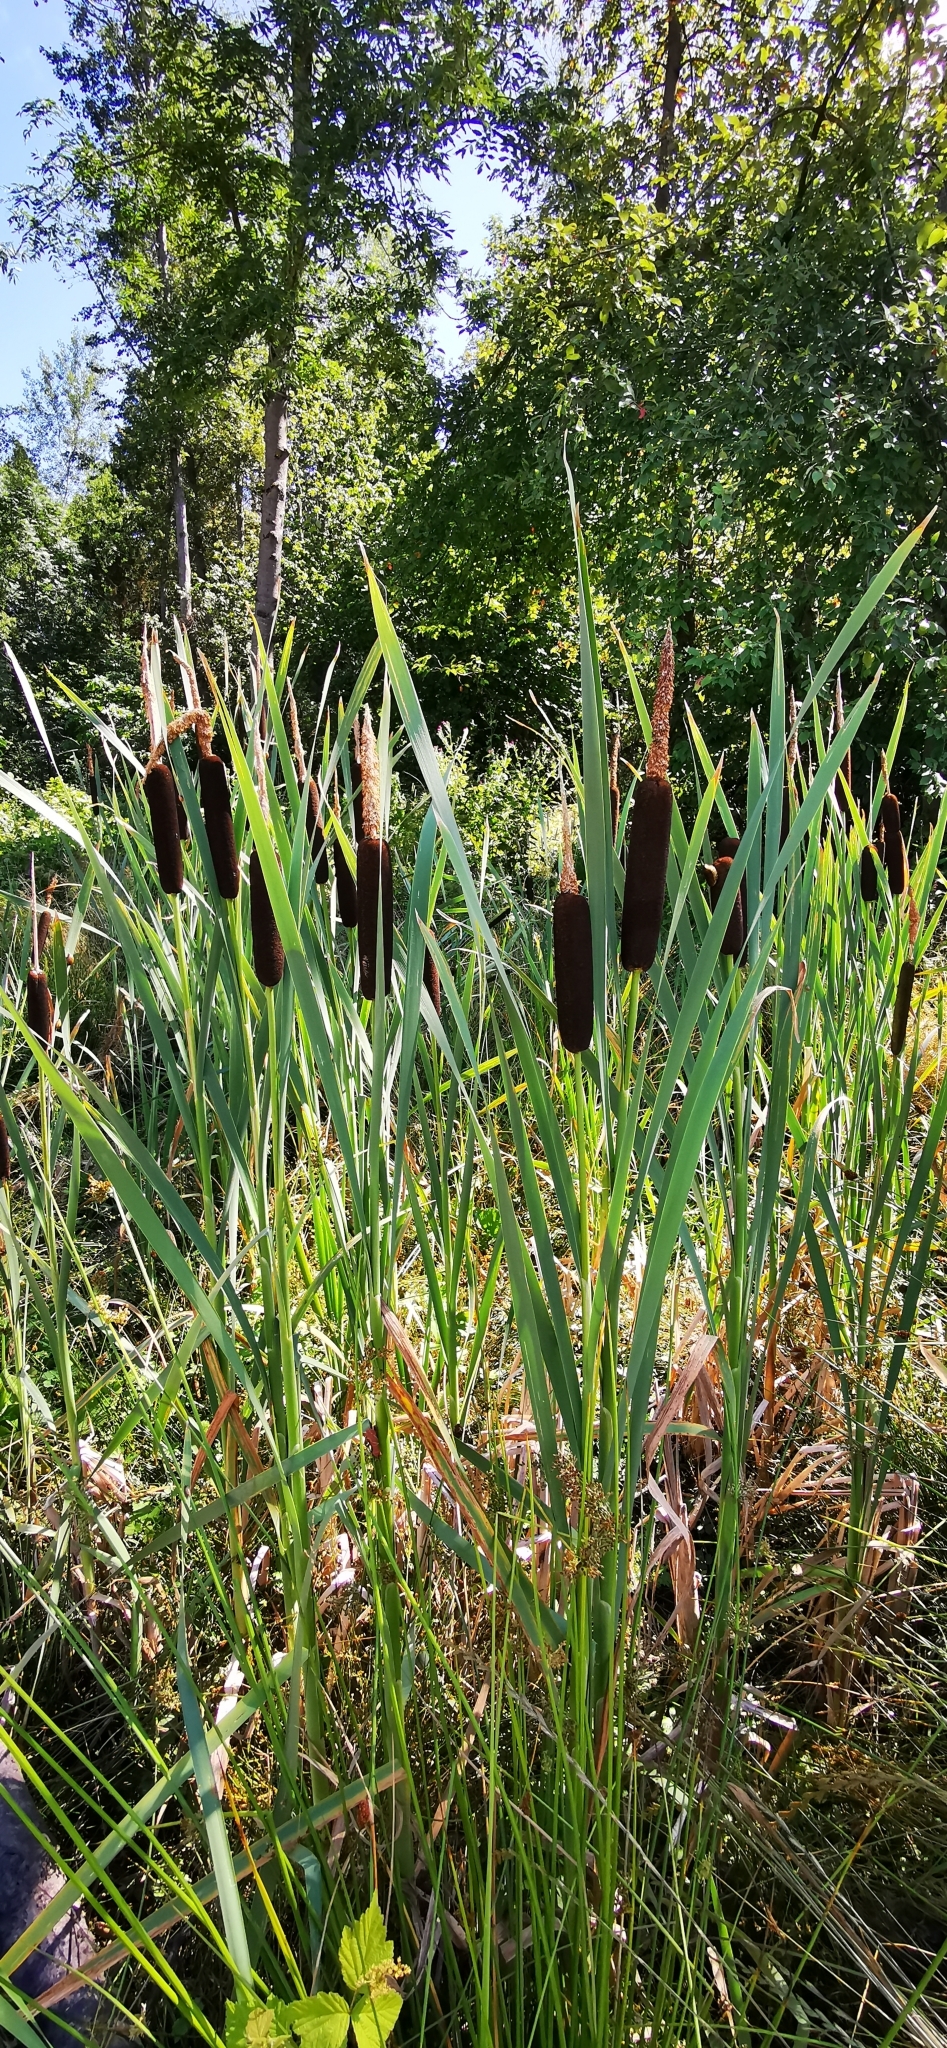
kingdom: Plantae
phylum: Tracheophyta
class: Liliopsida
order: Poales
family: Typhaceae
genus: Typha
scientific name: Typha latifolia
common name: Broadleaf cattail
